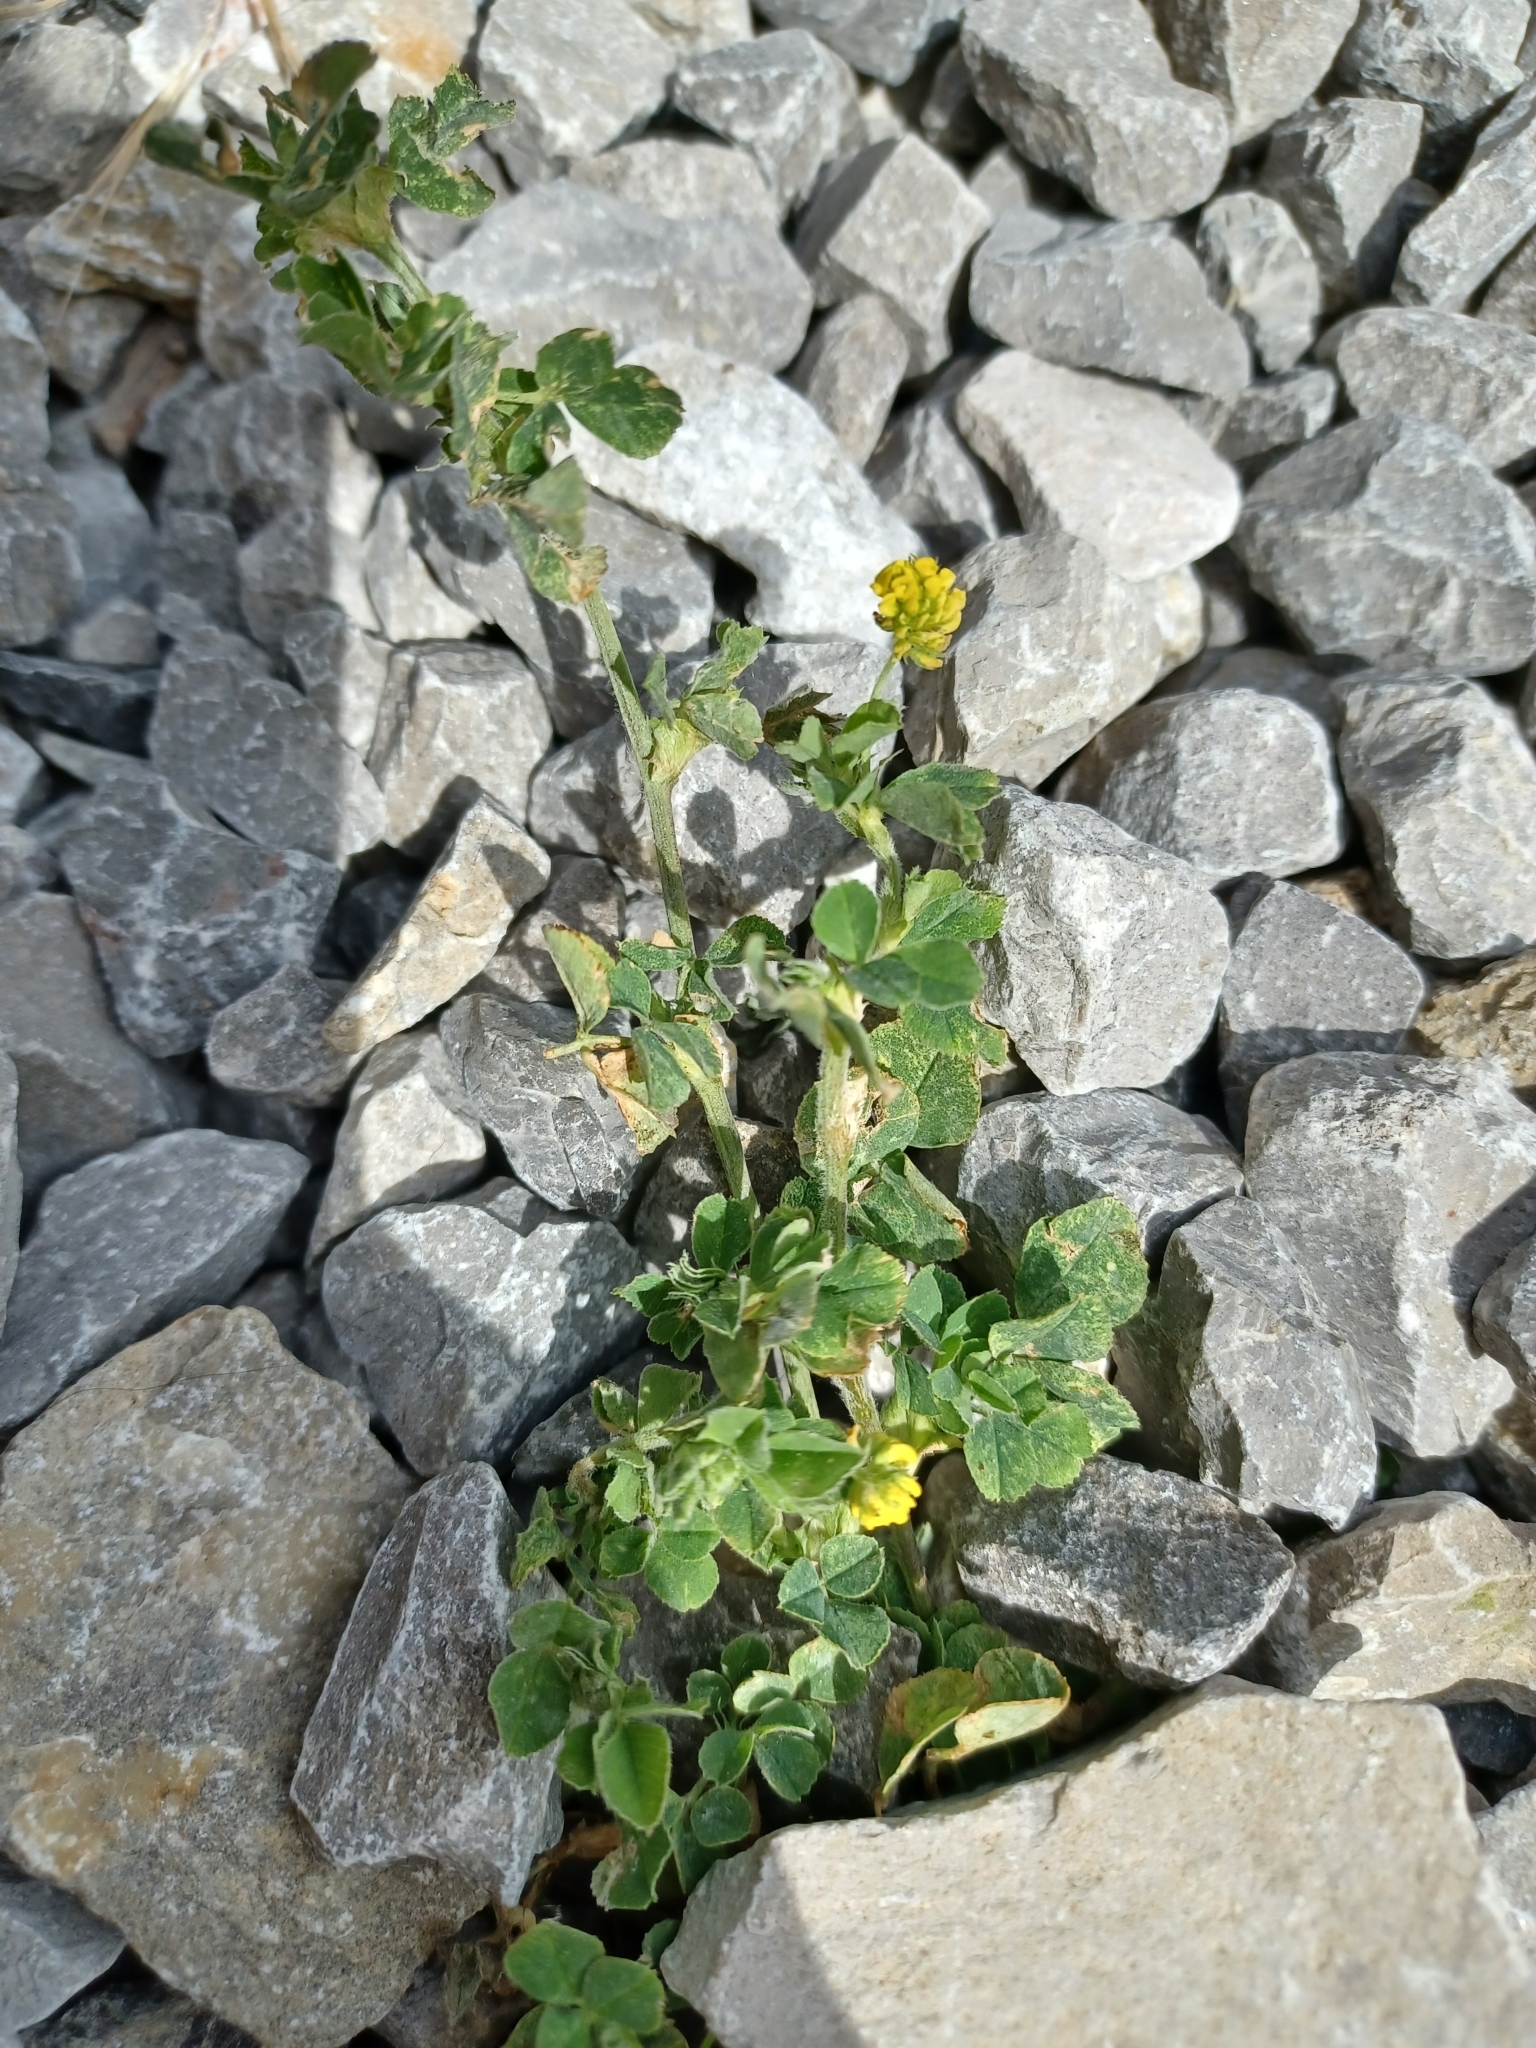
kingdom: Plantae
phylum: Tracheophyta
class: Magnoliopsida
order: Fabales
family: Fabaceae
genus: Medicago
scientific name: Medicago lupulina
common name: Black medick
